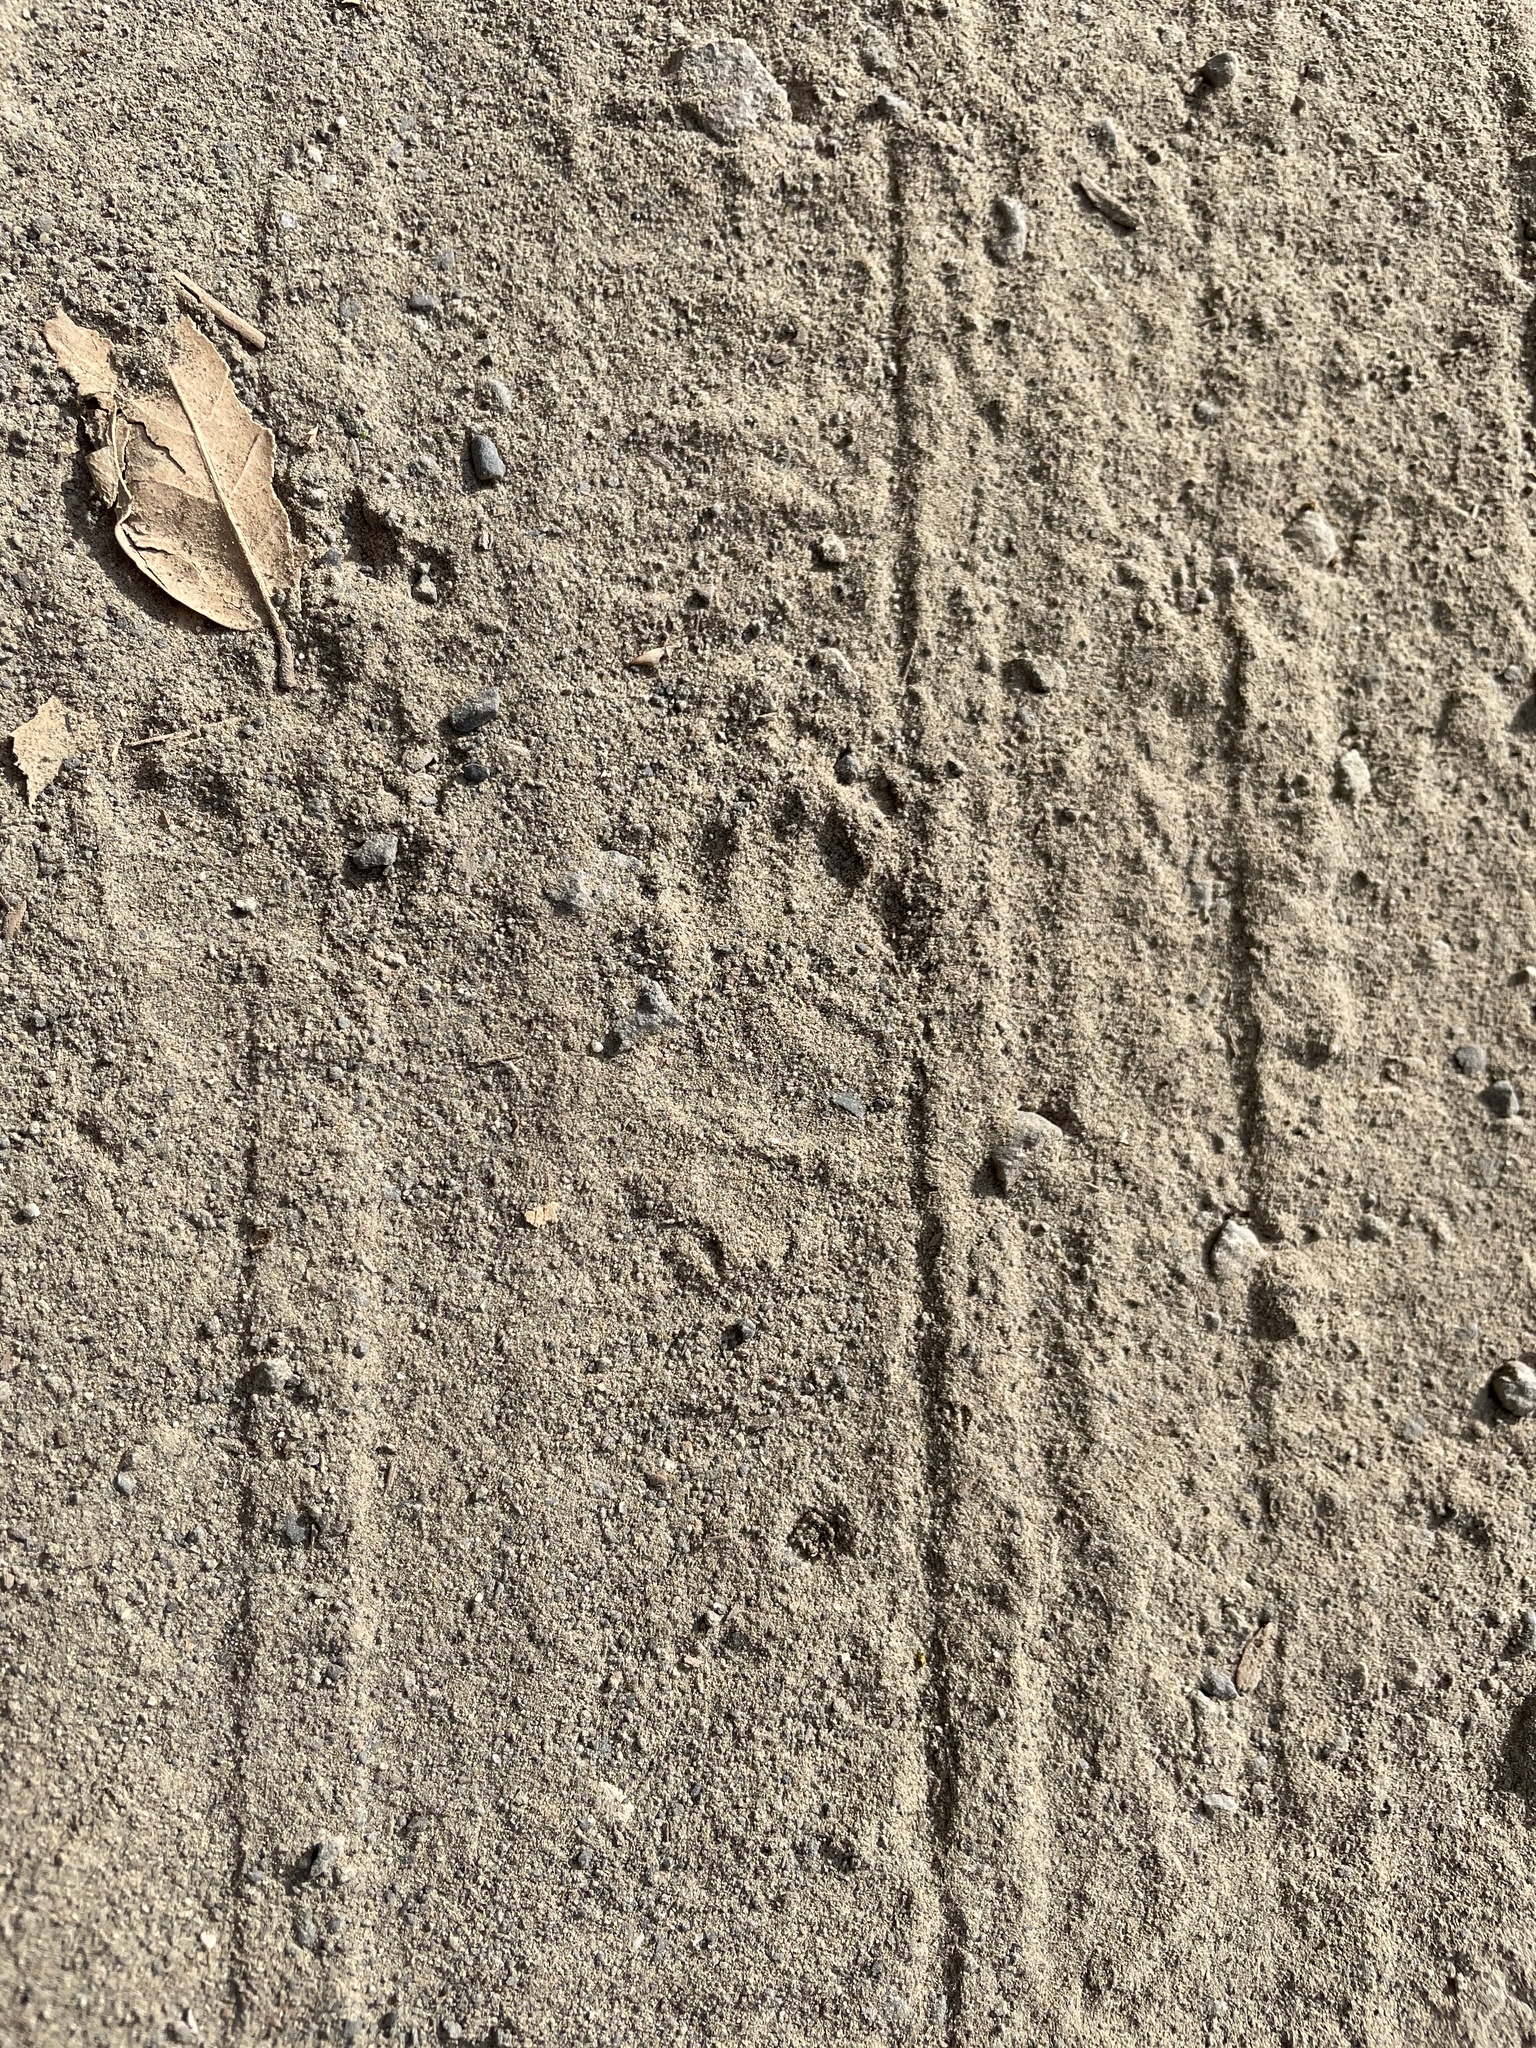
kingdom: Animalia
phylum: Chordata
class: Mammalia
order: Carnivora
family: Mephitidae
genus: Mephitis
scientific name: Mephitis mephitis
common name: Striped skunk
